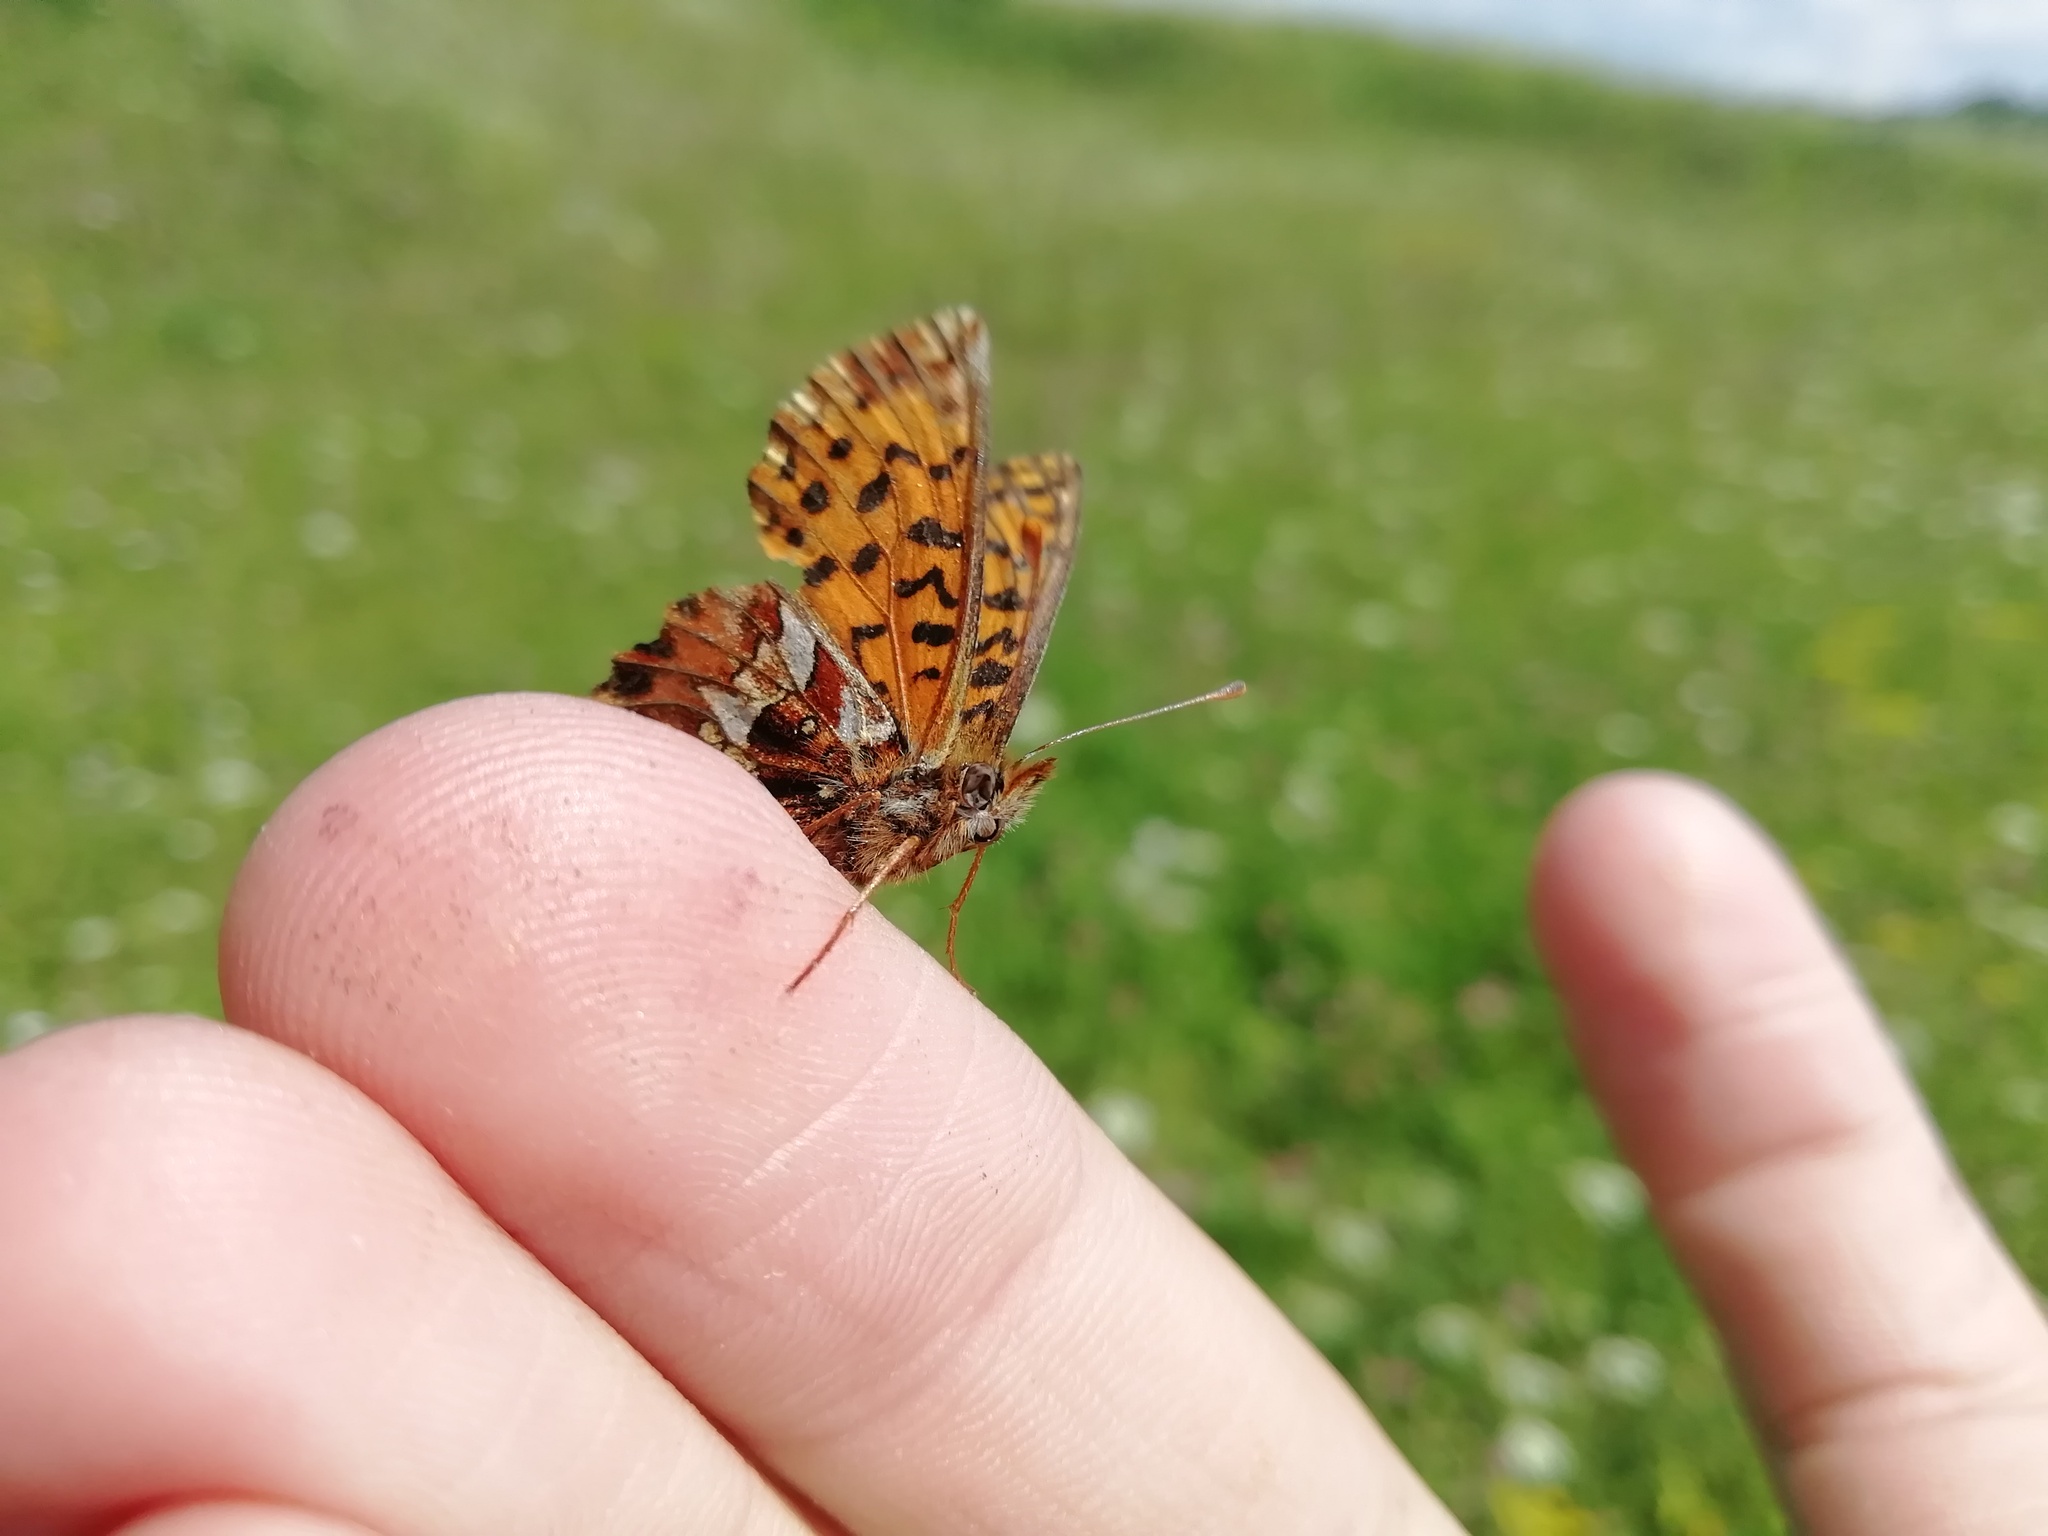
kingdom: Animalia
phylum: Arthropoda
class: Insecta
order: Lepidoptera
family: Nymphalidae
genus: Boloria
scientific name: Boloria dia
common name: Weaver's fritillary
